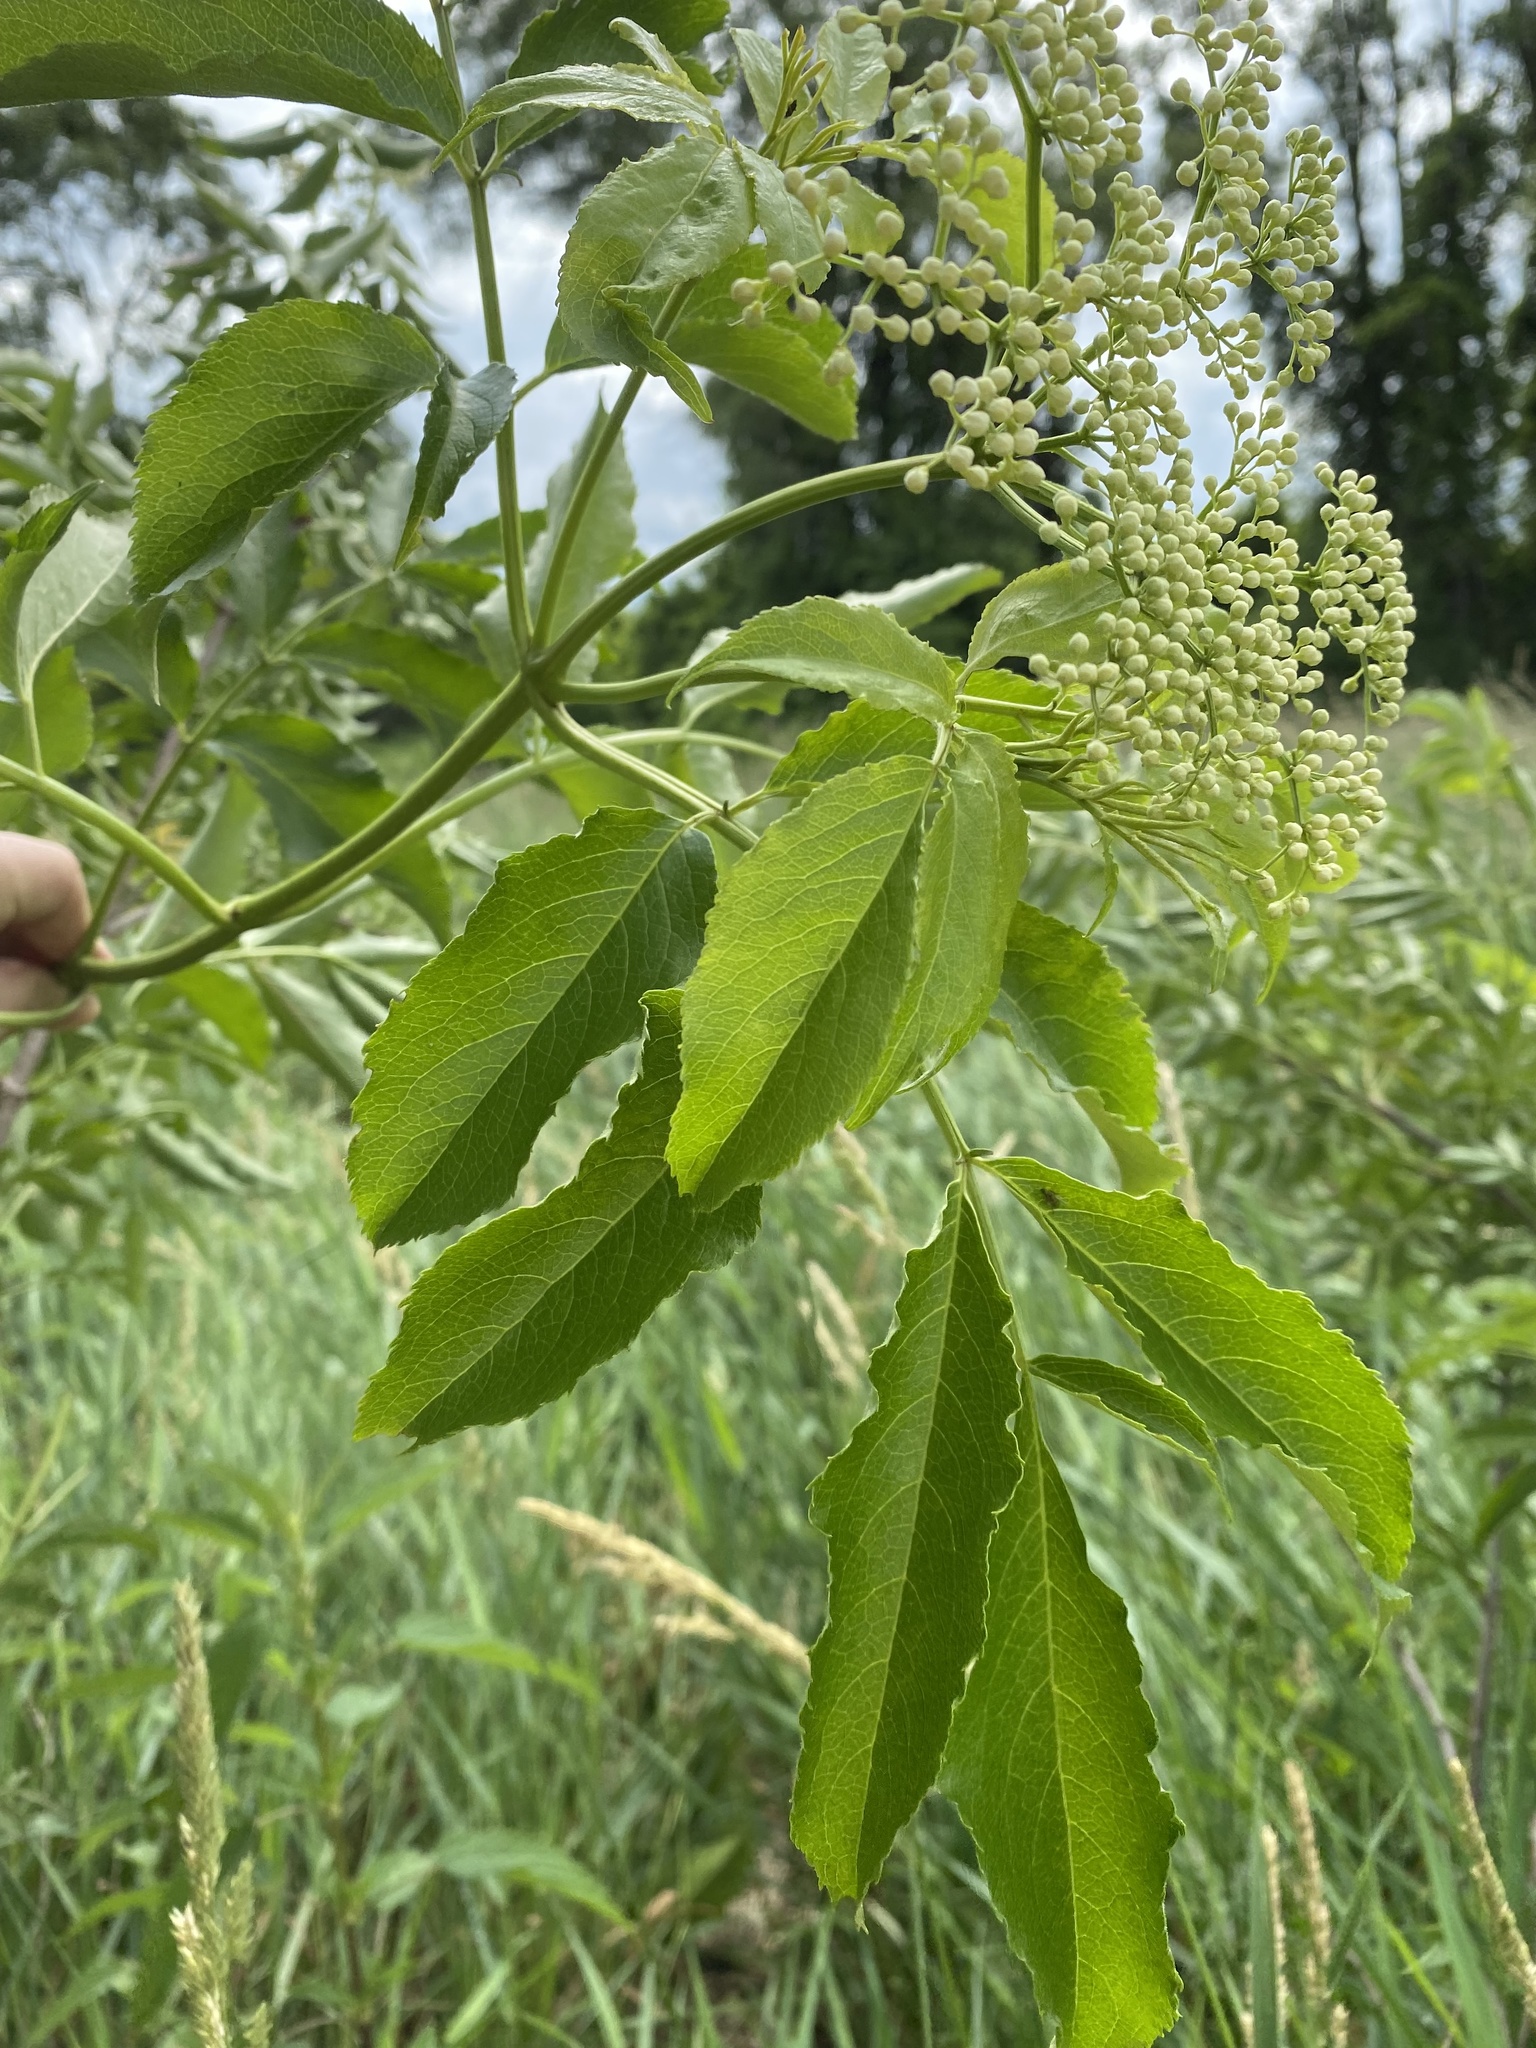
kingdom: Plantae
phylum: Tracheophyta
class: Magnoliopsida
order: Dipsacales
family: Viburnaceae
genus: Sambucus
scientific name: Sambucus canadensis
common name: American elder
